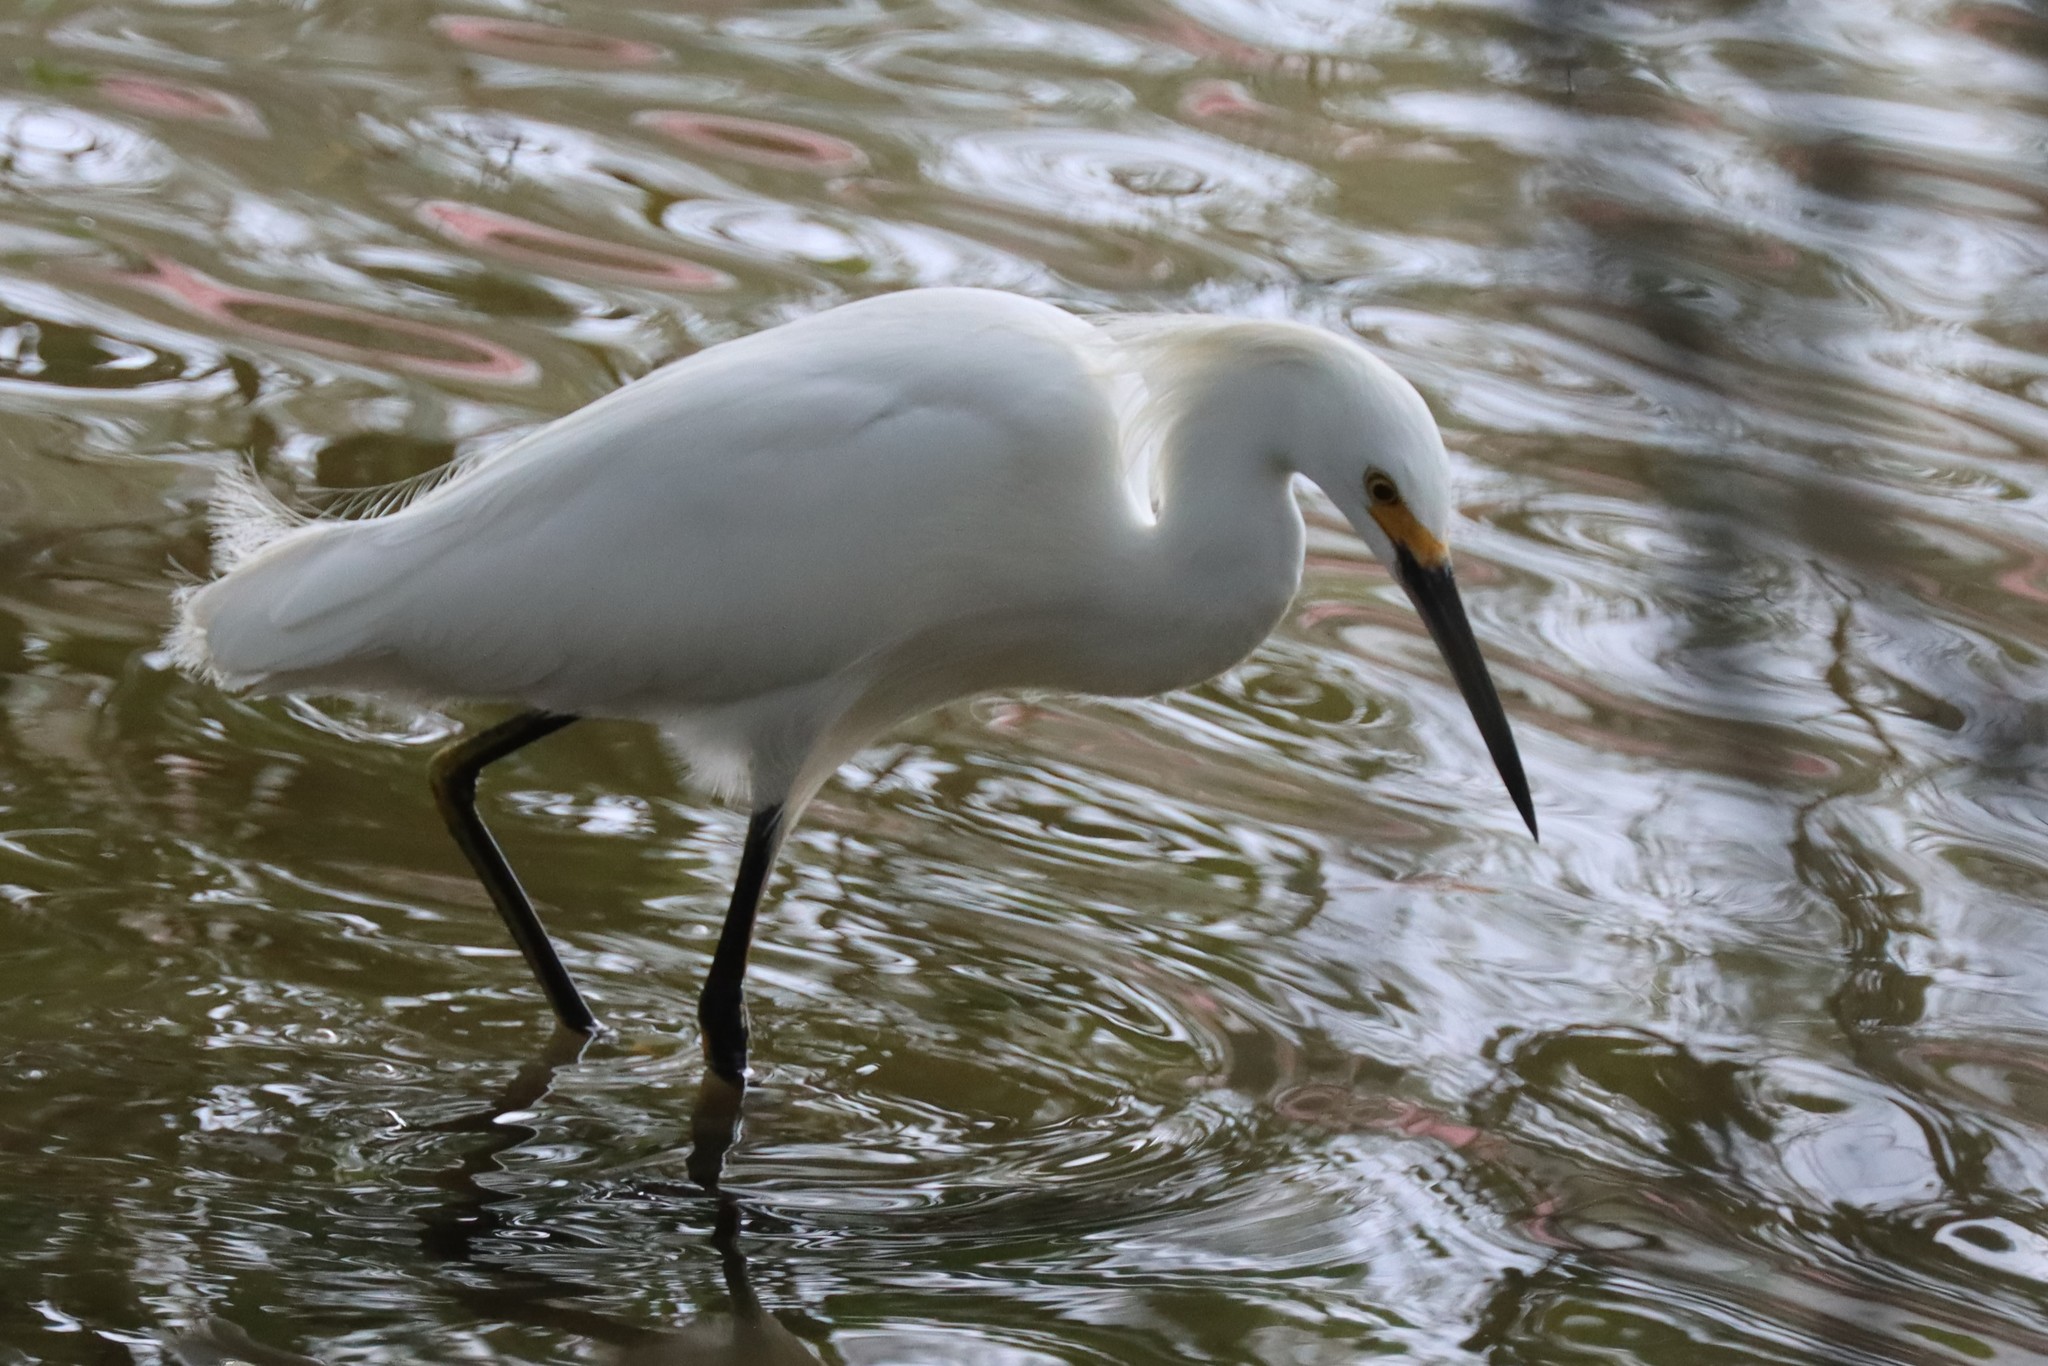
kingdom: Animalia
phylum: Chordata
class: Aves
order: Pelecaniformes
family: Ardeidae
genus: Egretta
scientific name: Egretta thula
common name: Snowy egret
